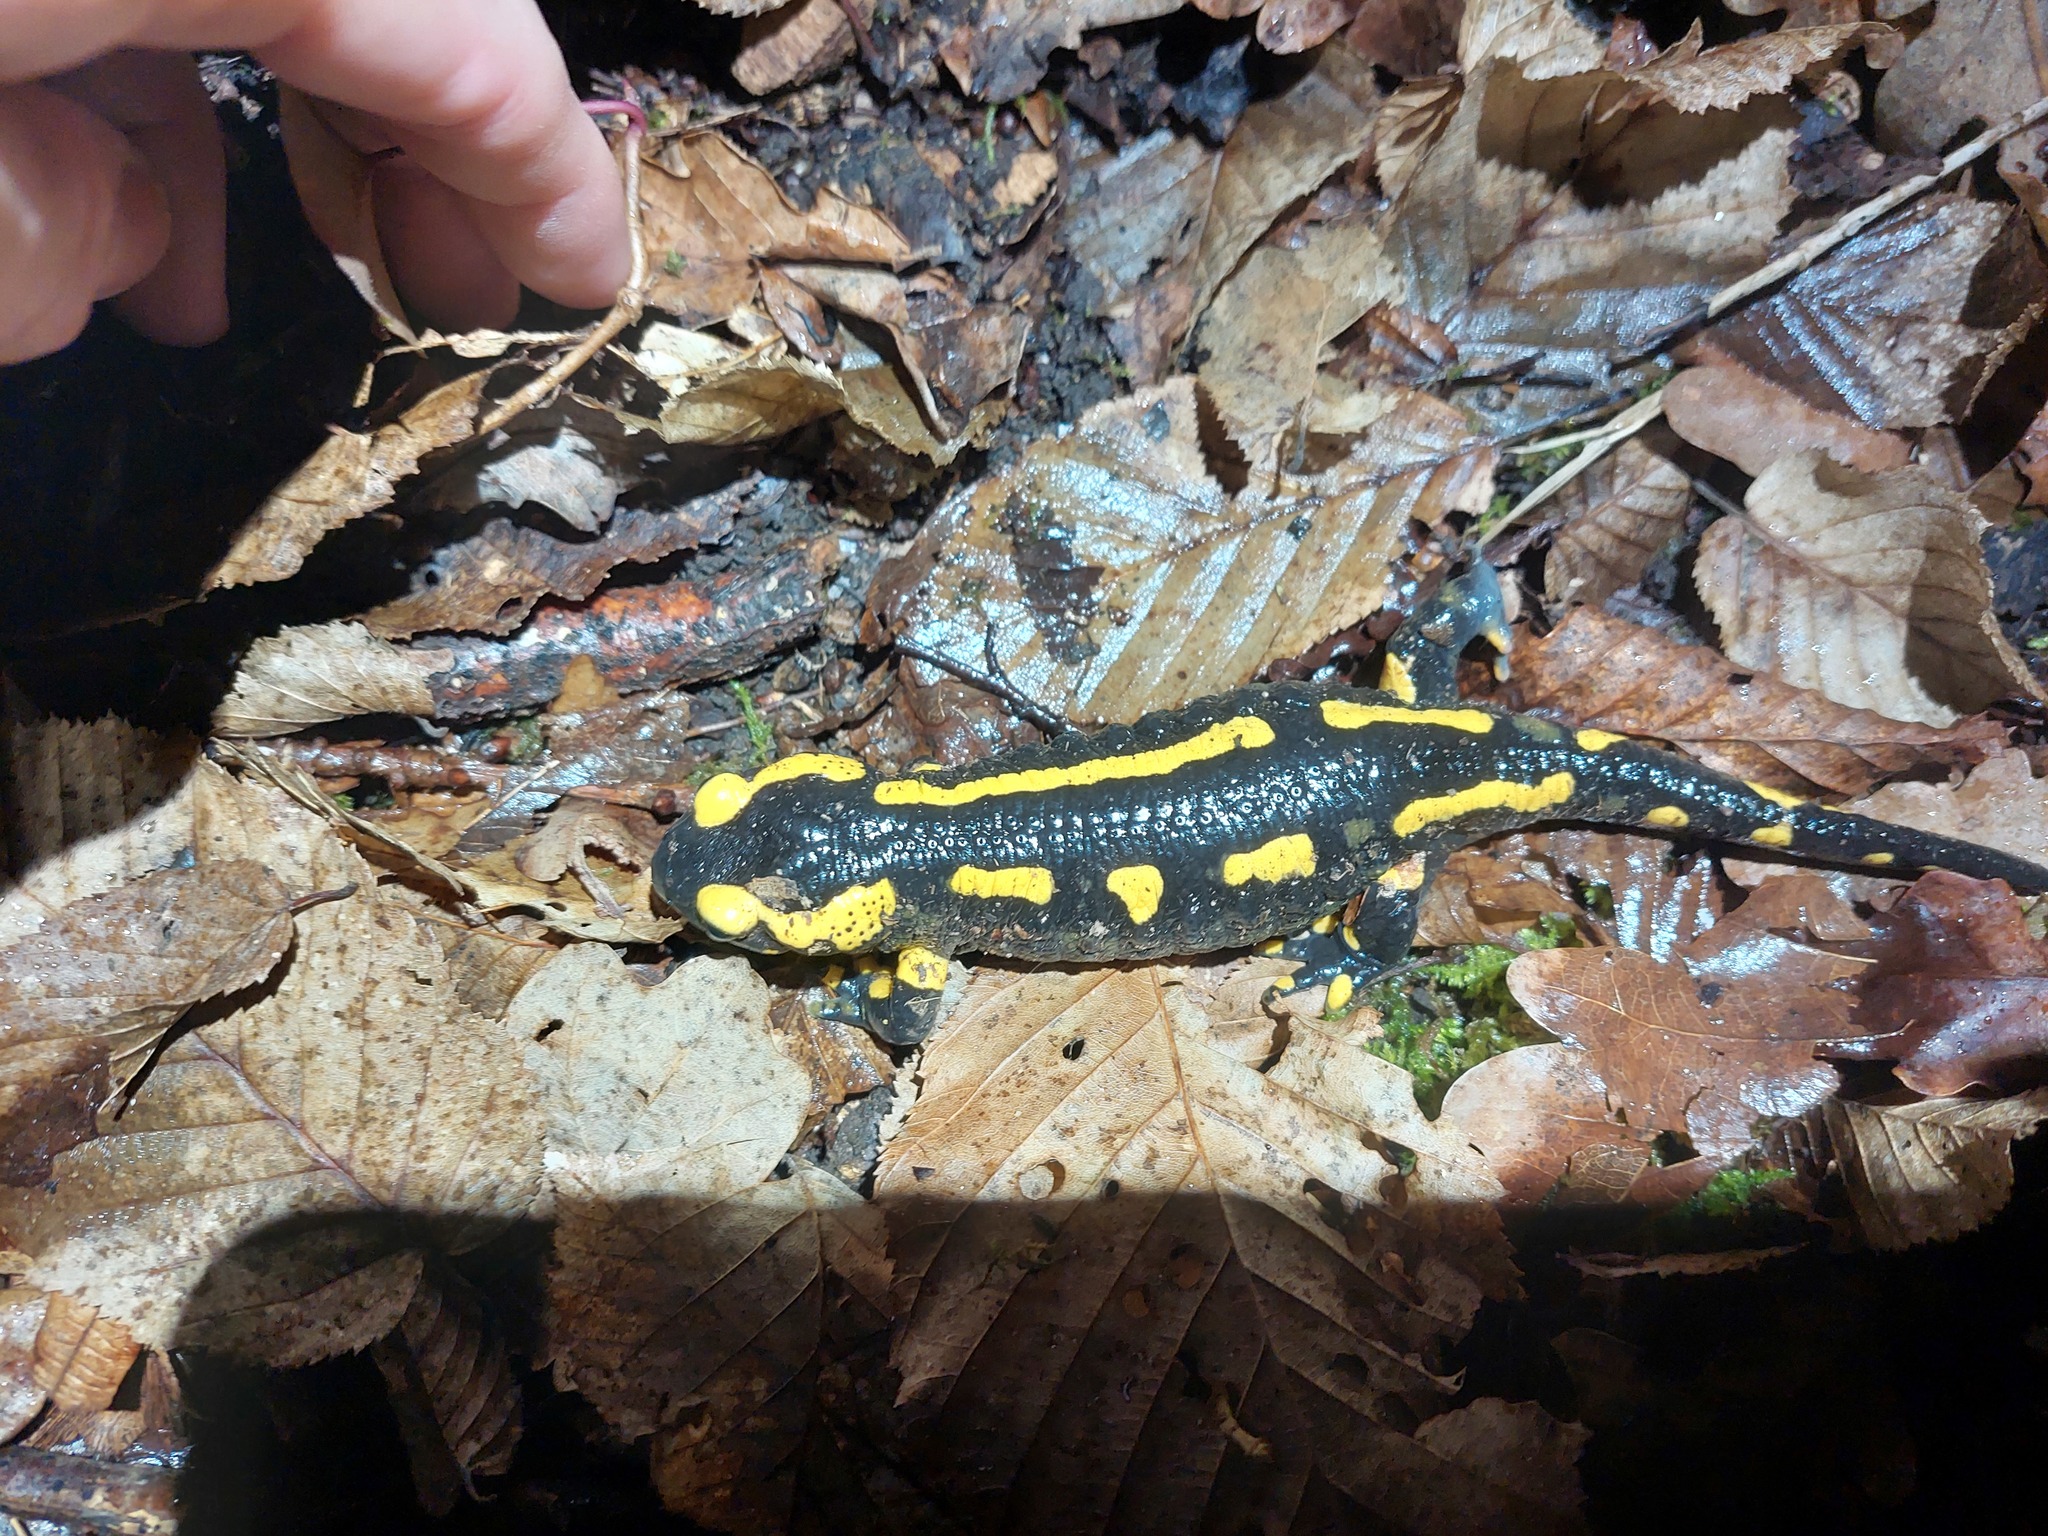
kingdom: Animalia
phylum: Chordata
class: Amphibia
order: Caudata
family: Salamandridae
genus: Salamandra
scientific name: Salamandra salamandra
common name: Fire salamander
